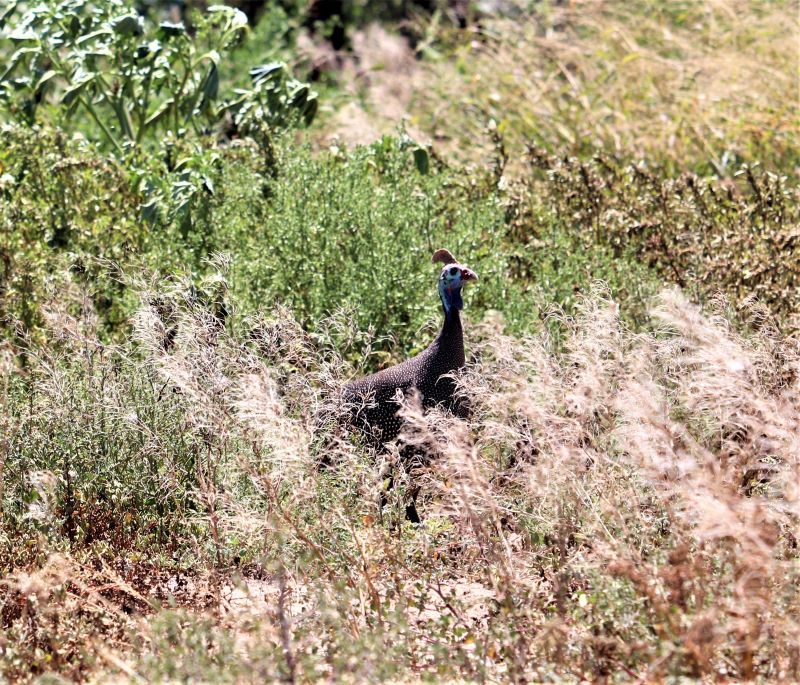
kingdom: Animalia
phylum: Chordata
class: Aves
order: Galliformes
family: Numididae
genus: Numida
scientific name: Numida meleagris
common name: Helmeted guineafowl
